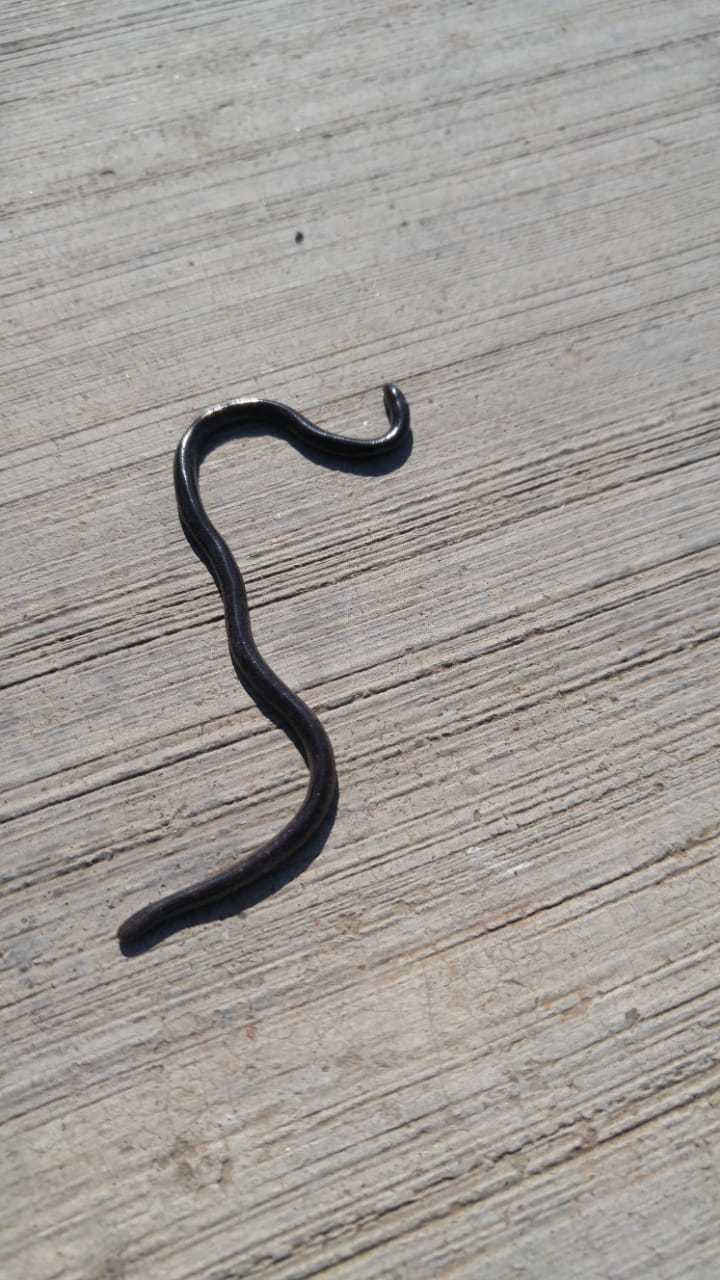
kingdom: Animalia
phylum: Chordata
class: Squamata
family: Typhlopidae
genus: Indotyphlops
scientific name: Indotyphlops braminus
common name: Brahminy blindsnake
